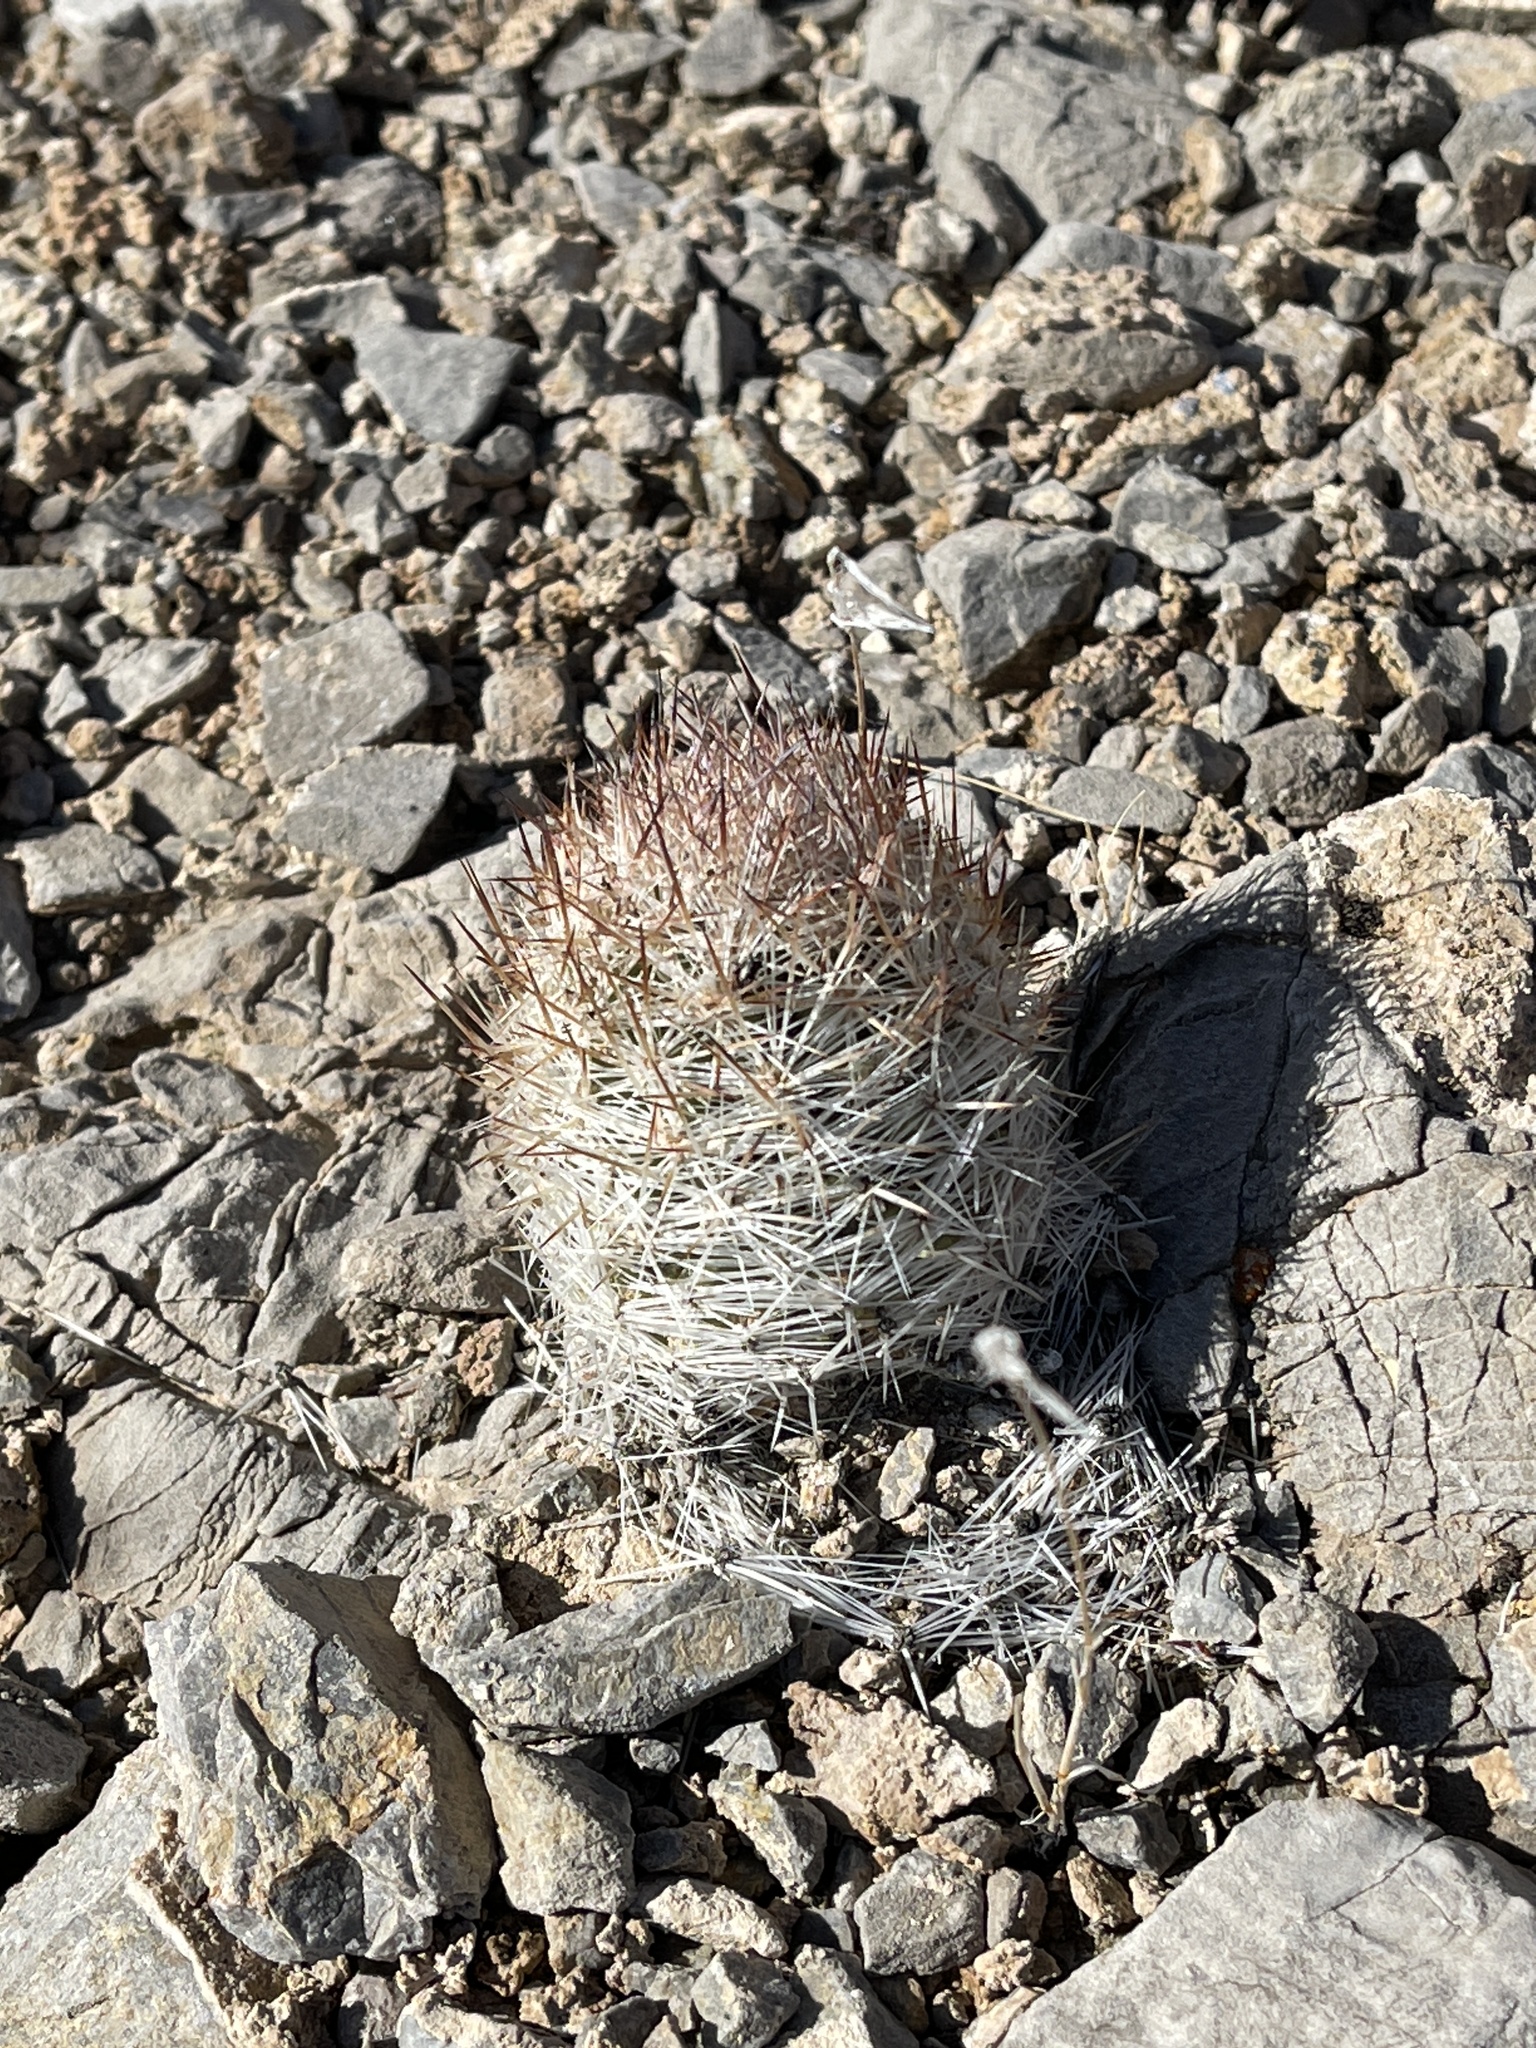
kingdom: Plantae
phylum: Tracheophyta
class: Magnoliopsida
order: Caryophyllales
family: Cactaceae
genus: Pelecyphora
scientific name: Pelecyphora dasyacantha
